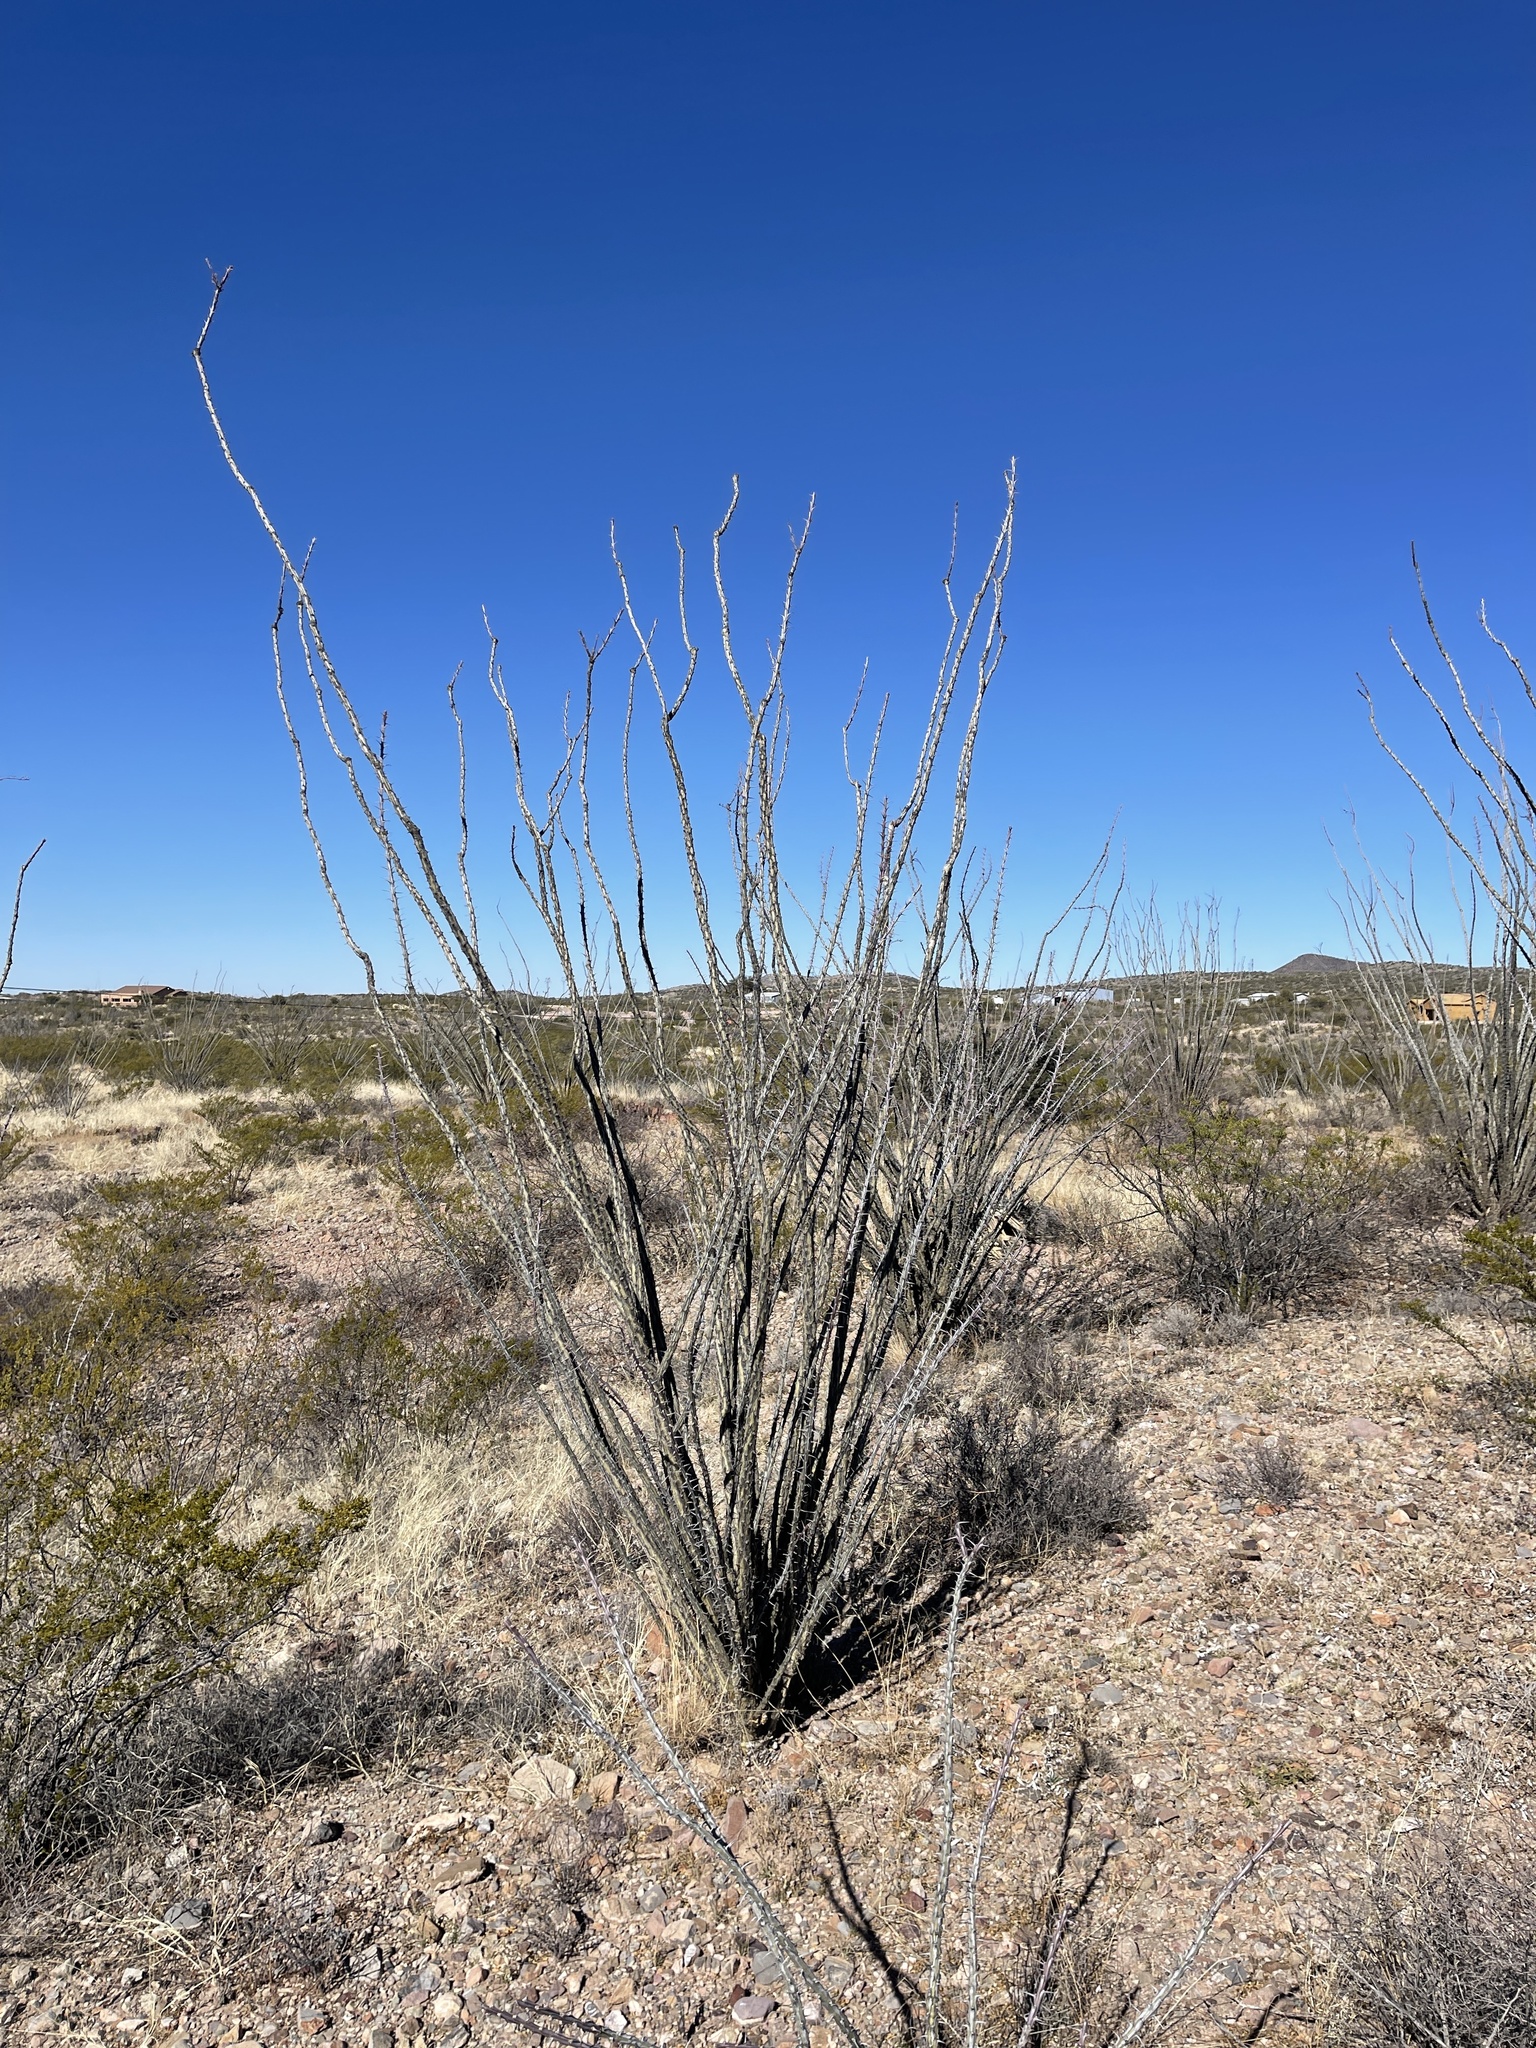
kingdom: Plantae
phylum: Tracheophyta
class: Magnoliopsida
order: Ericales
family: Fouquieriaceae
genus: Fouquieria
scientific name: Fouquieria splendens
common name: Vine-cactus
